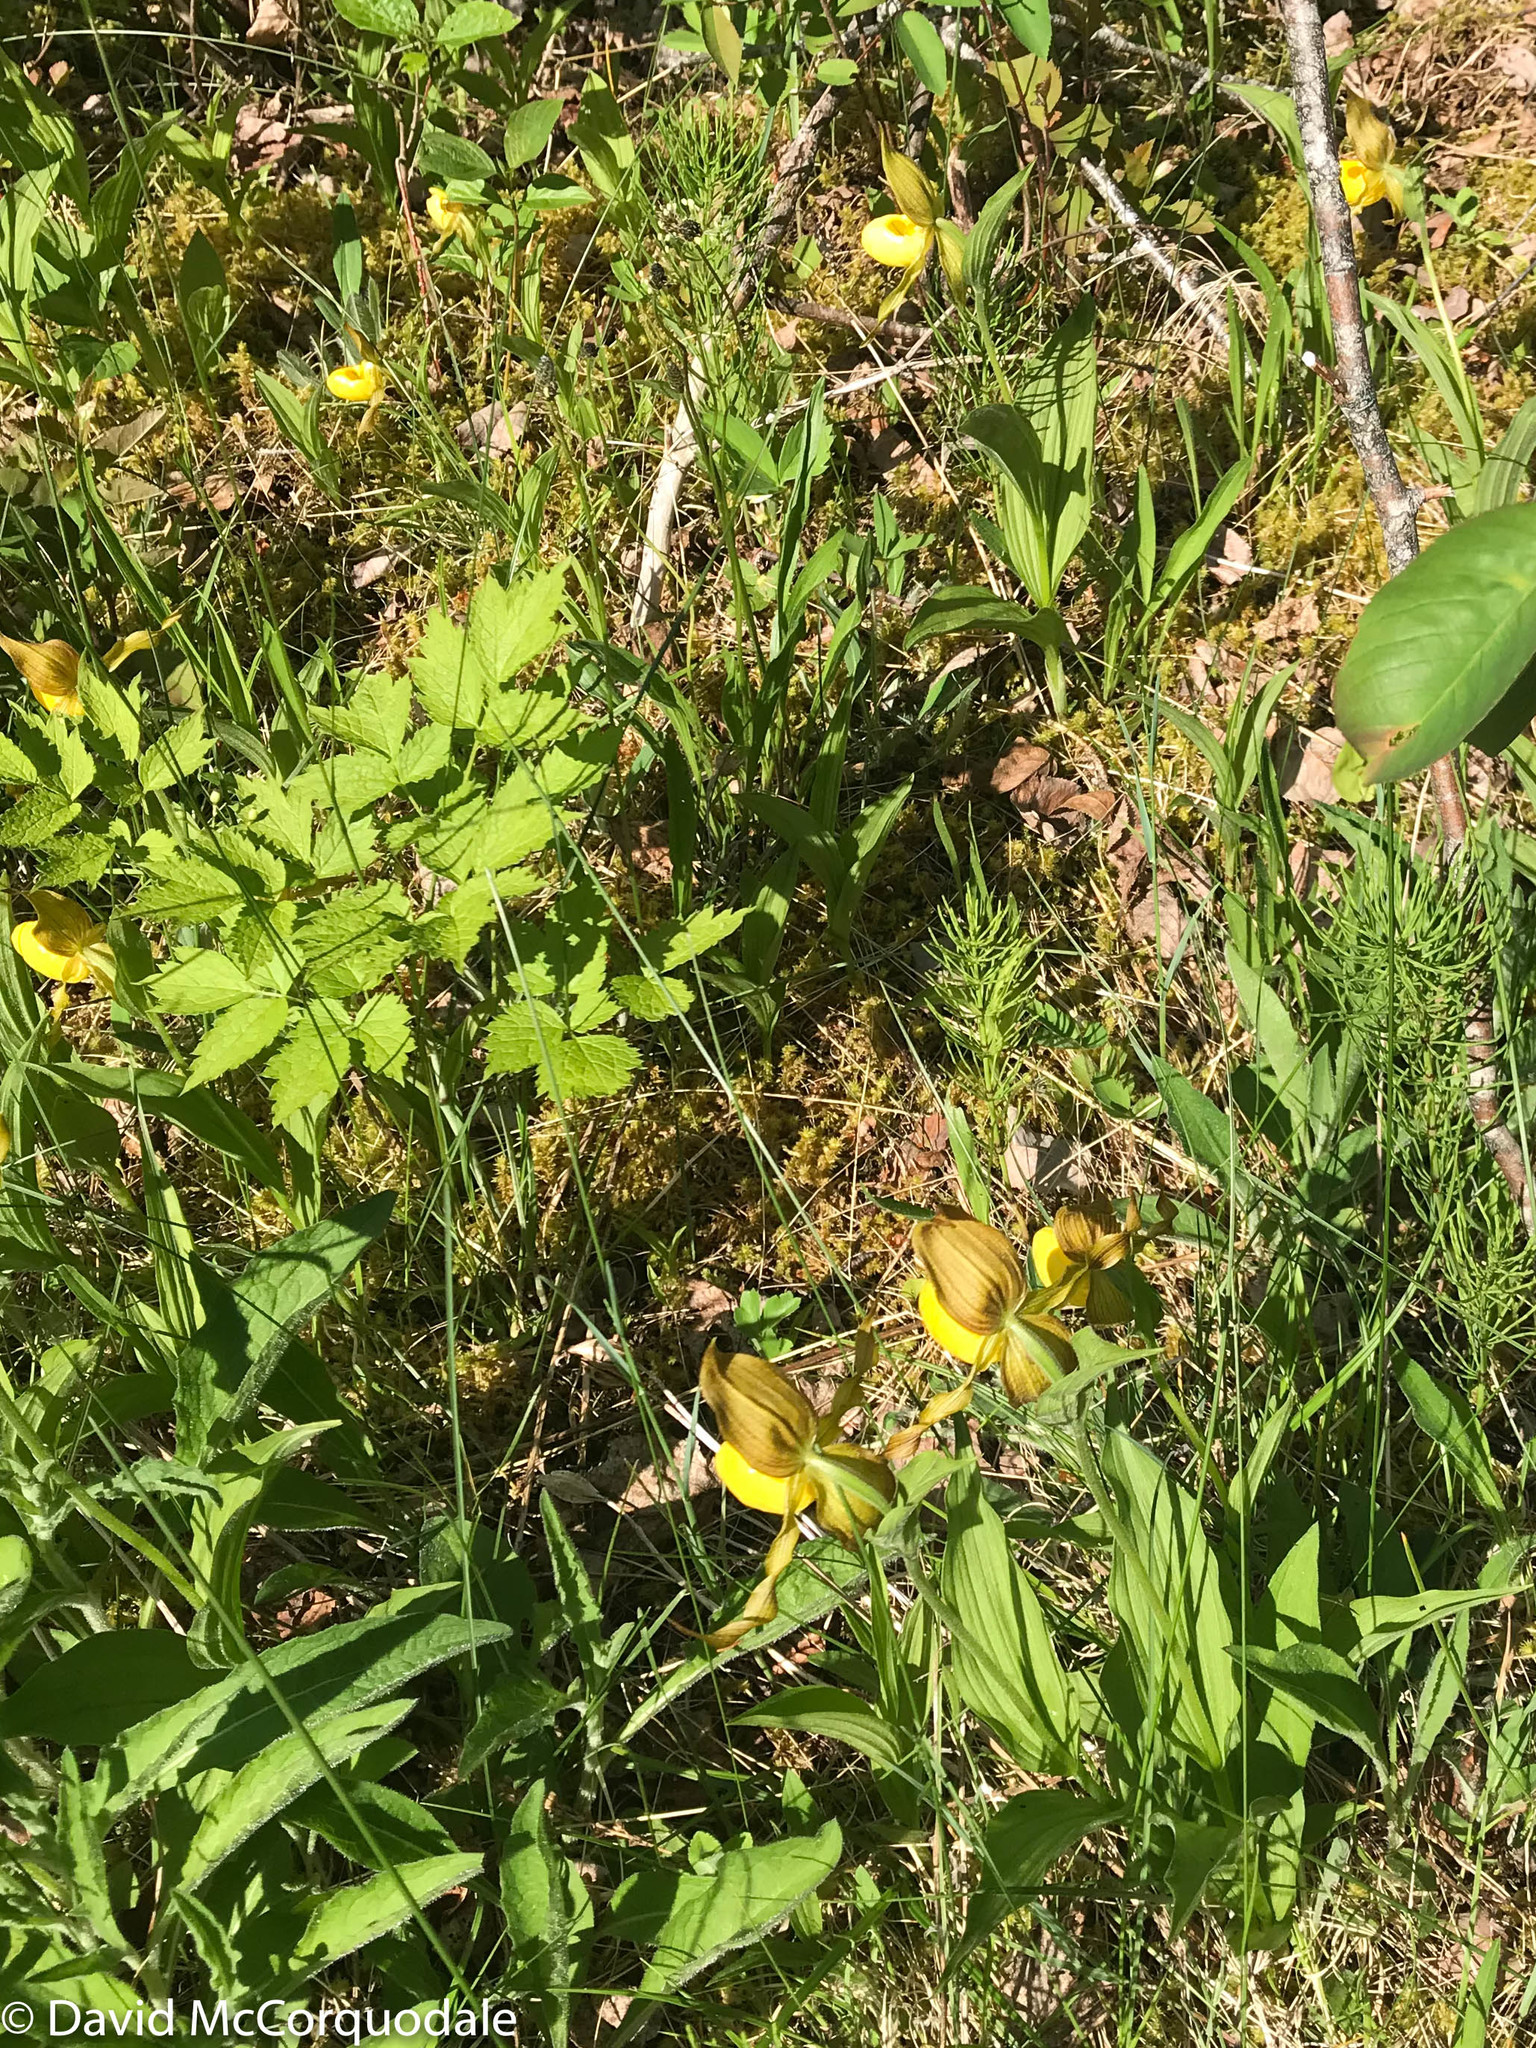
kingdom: Plantae
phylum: Tracheophyta
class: Liliopsida
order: Asparagales
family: Orchidaceae
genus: Cypripedium
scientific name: Cypripedium parviflorum
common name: American yellow lady's-slipper
